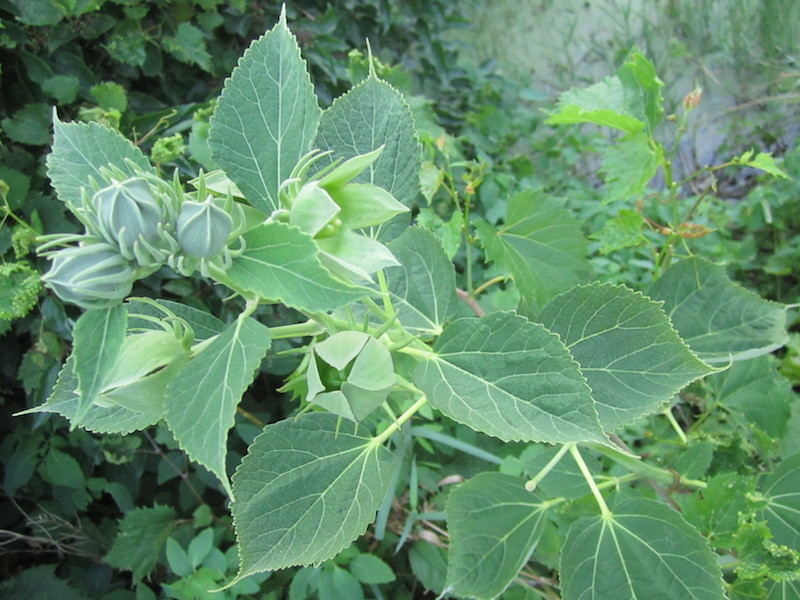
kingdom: Plantae
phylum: Tracheophyta
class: Magnoliopsida
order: Malvales
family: Malvaceae
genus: Hibiscus
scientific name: Hibiscus moscheutos
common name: Common rose-mallow
